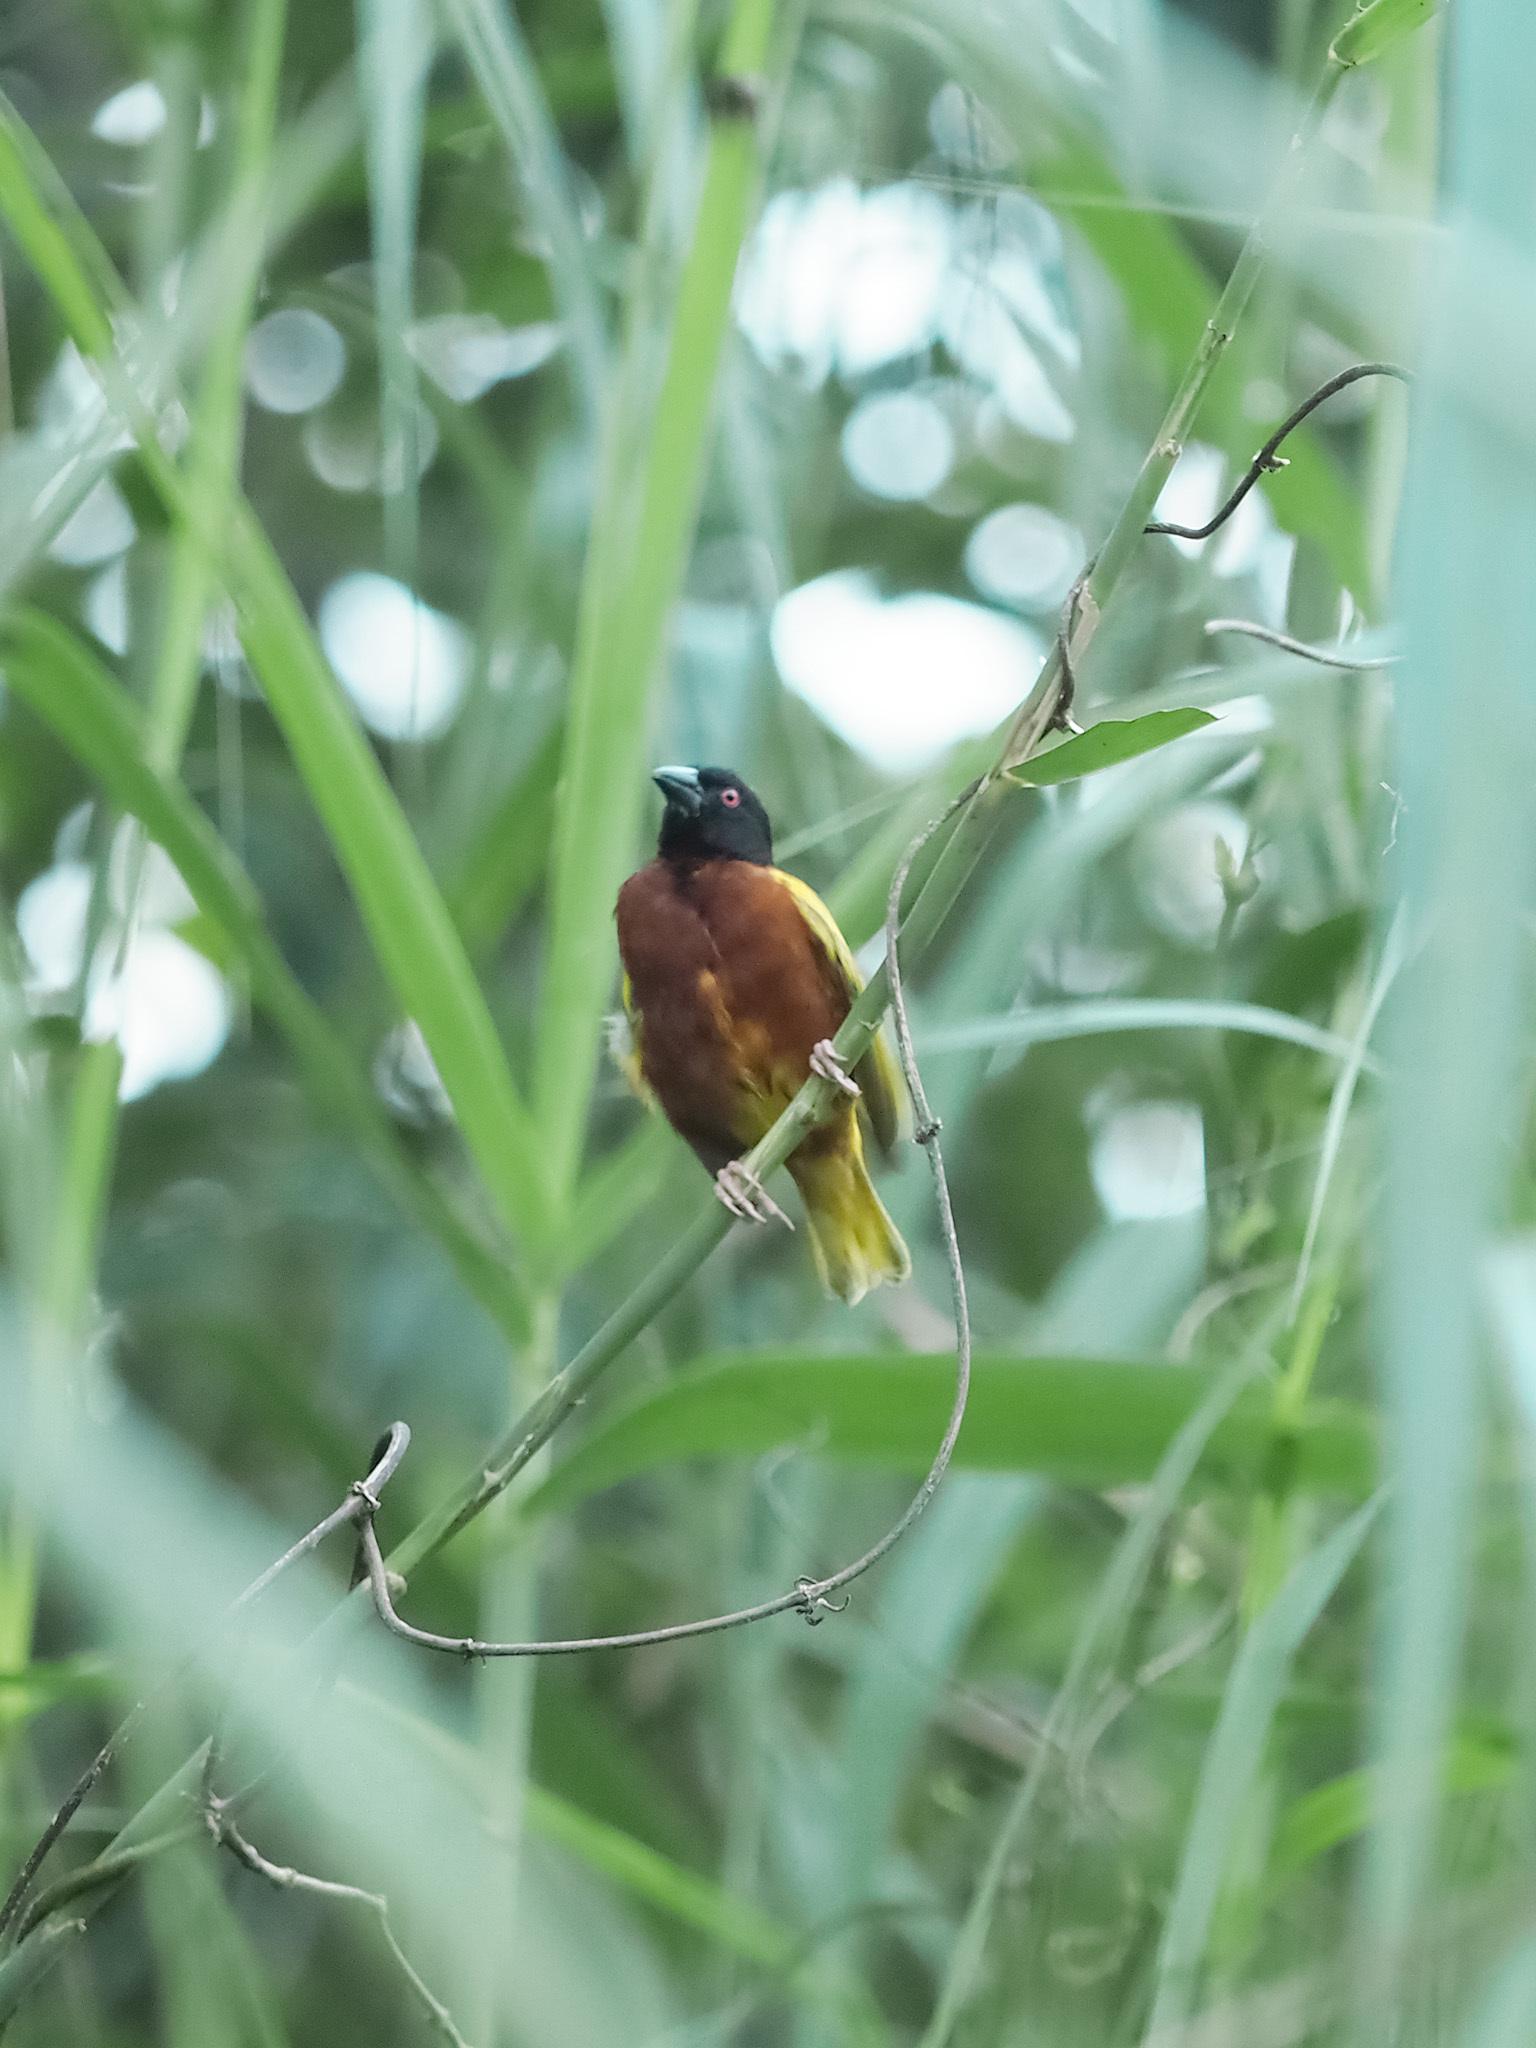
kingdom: Animalia
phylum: Chordata
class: Aves
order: Passeriformes
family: Ploceidae
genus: Ploceus
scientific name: Ploceus jacksoni
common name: Golden-backed weaver
